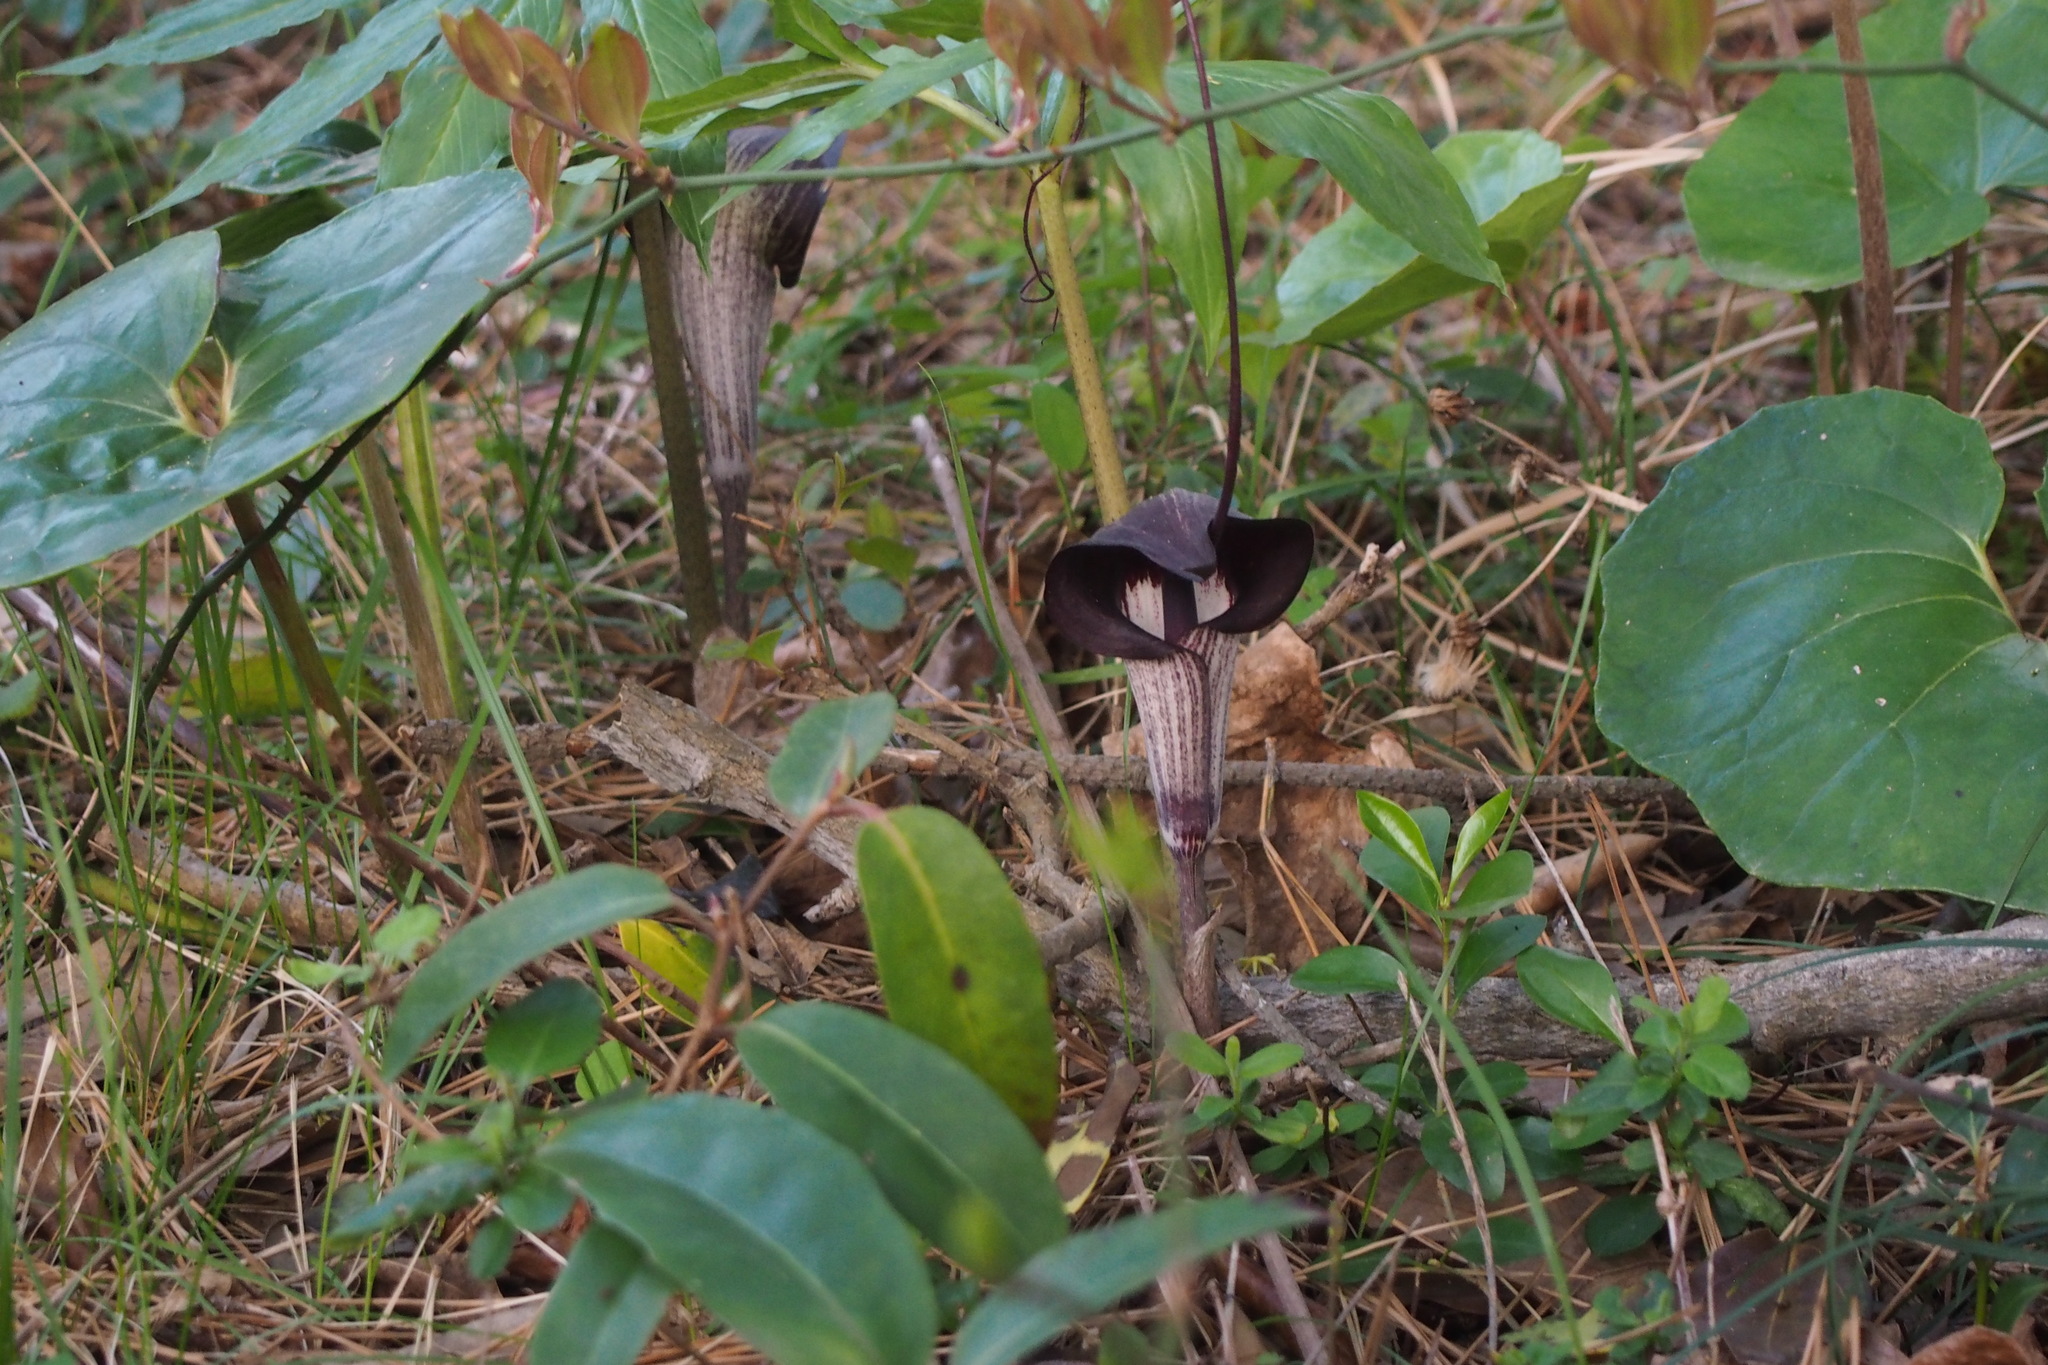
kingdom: Plantae
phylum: Tracheophyta
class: Liliopsida
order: Alismatales
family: Araceae
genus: Arisaema
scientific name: Arisaema thunbergii
